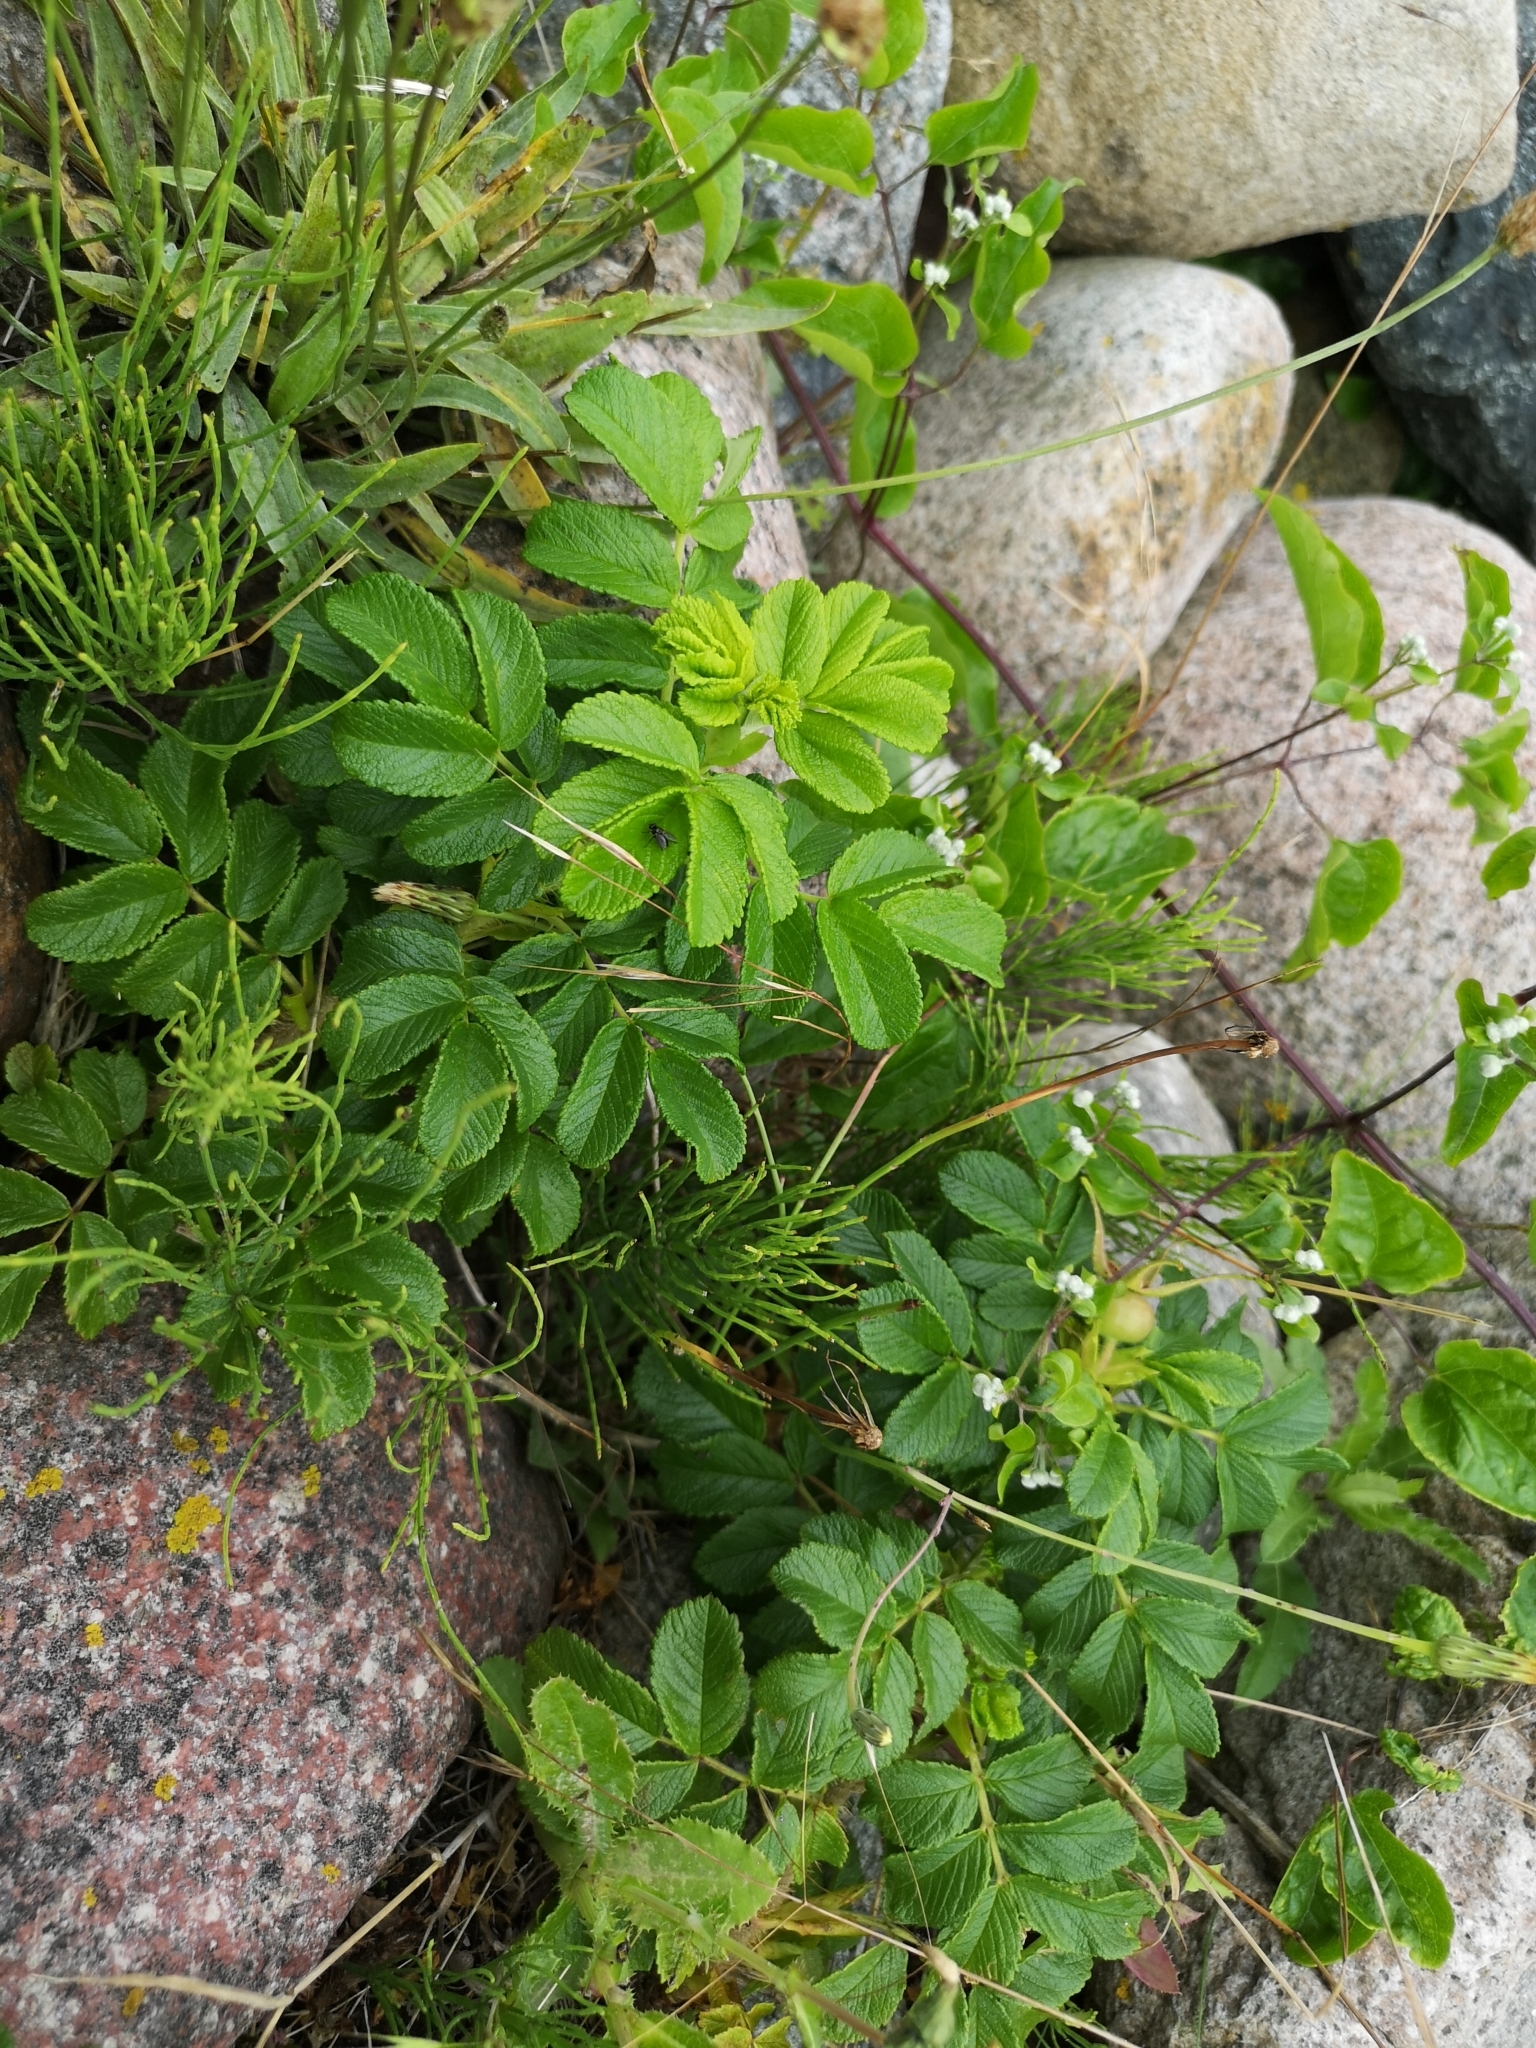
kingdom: Plantae
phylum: Tracheophyta
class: Magnoliopsida
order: Rosales
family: Rosaceae
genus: Rosa
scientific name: Rosa rugosa
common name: Japanese rose
